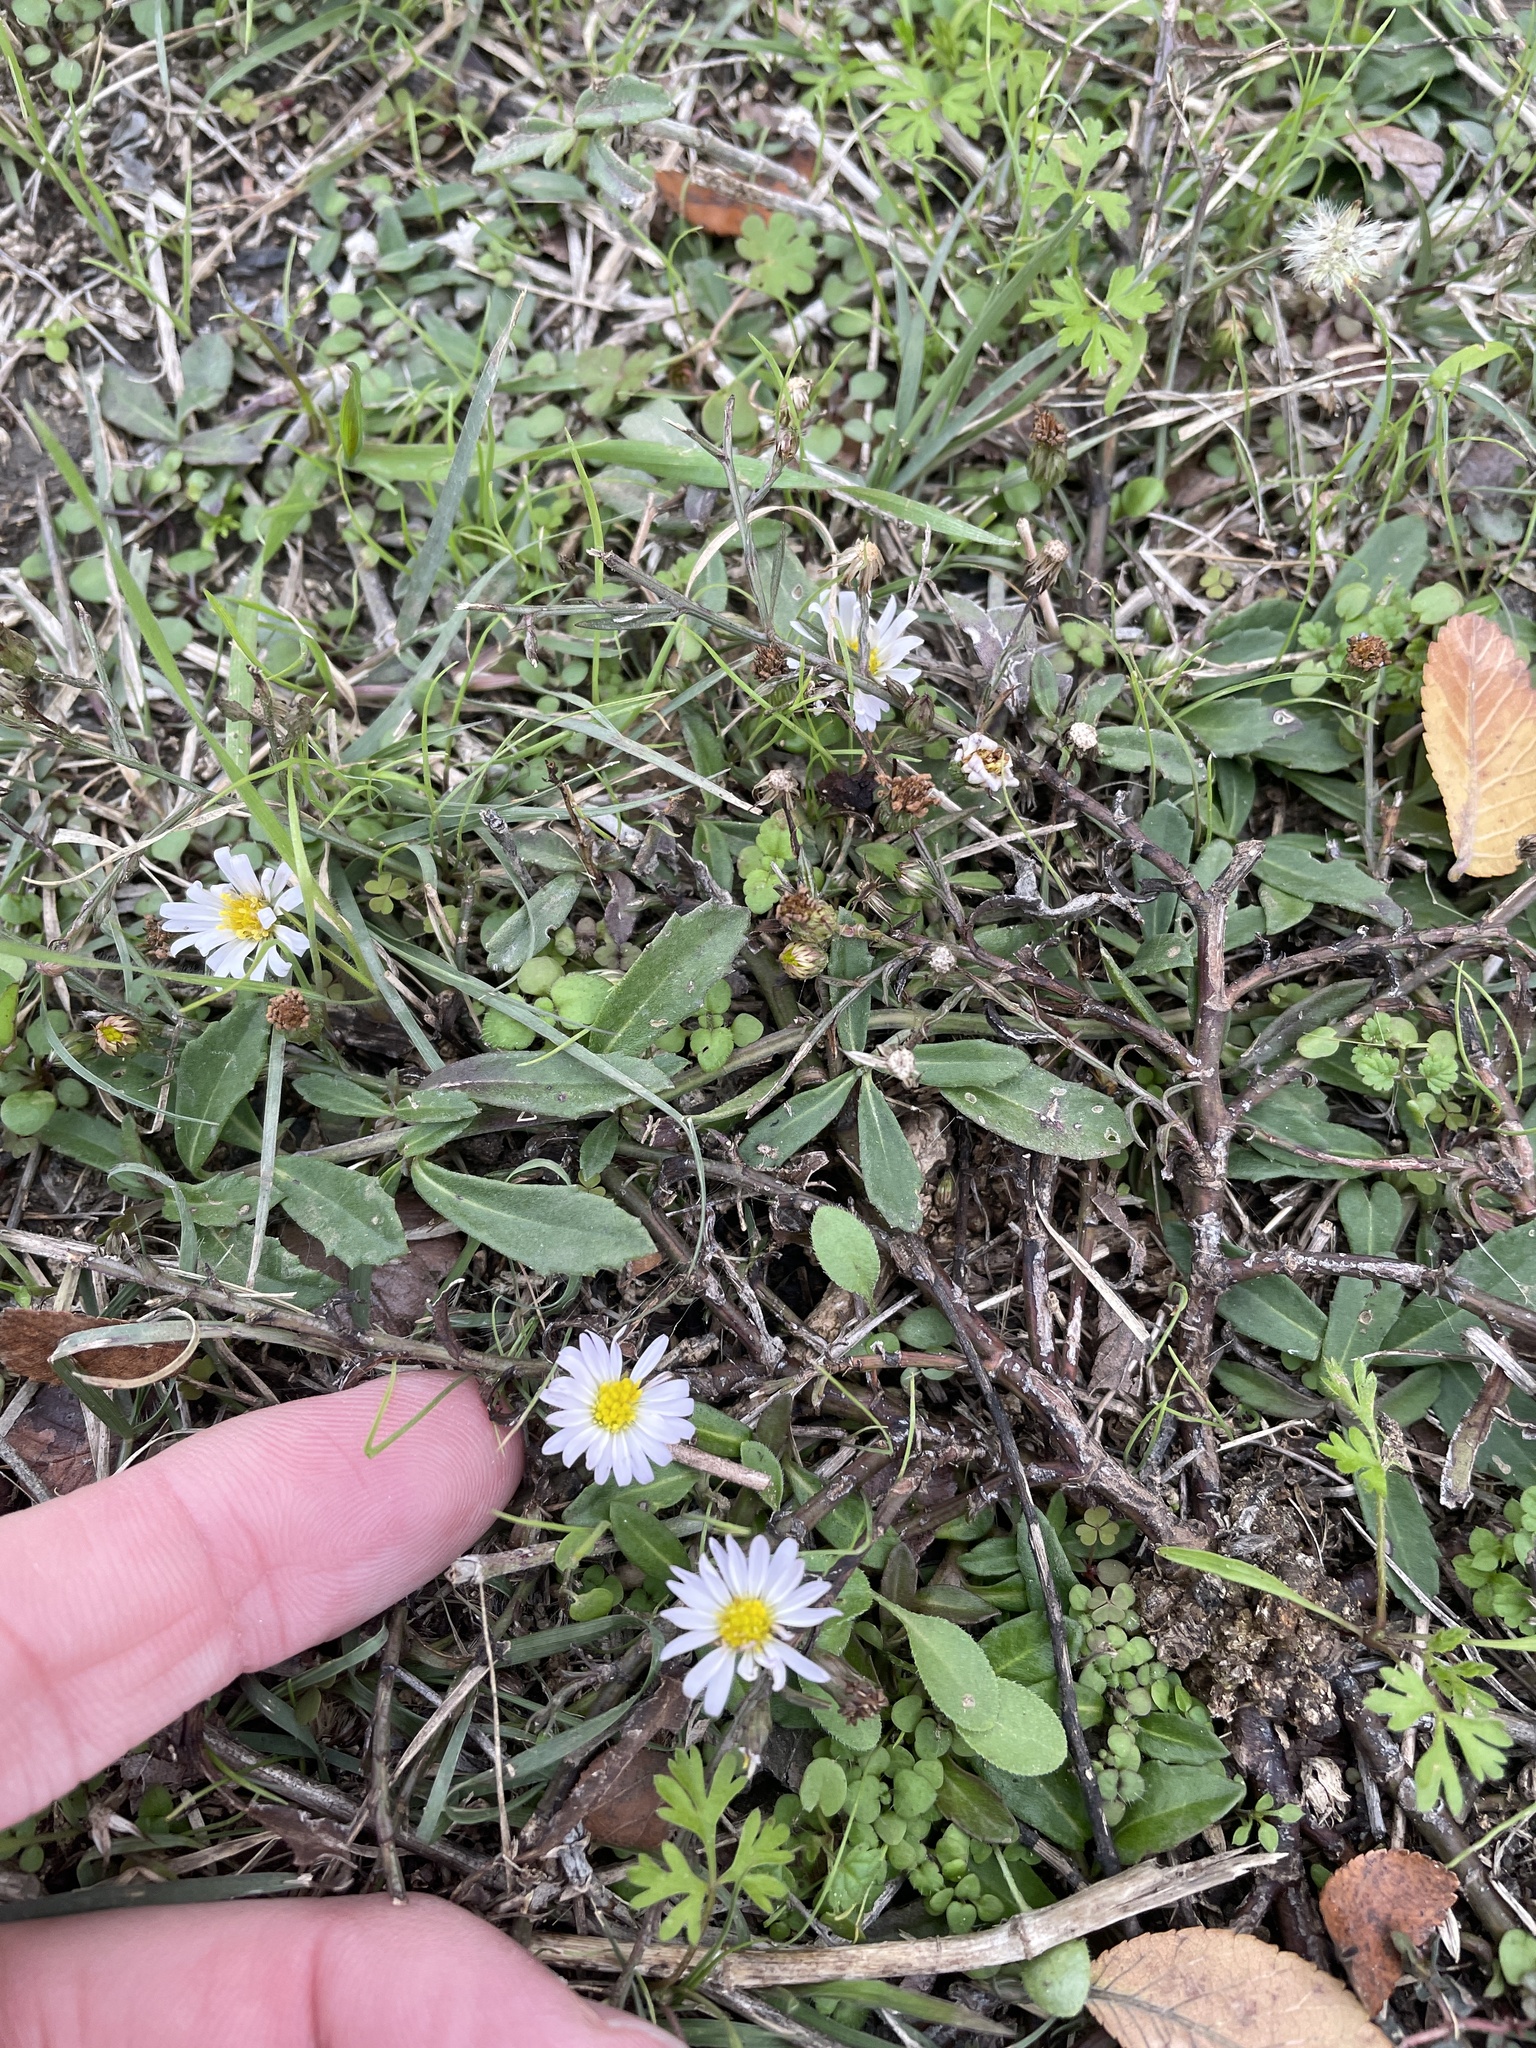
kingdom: Plantae
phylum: Tracheophyta
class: Magnoliopsida
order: Asterales
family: Asteraceae
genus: Symphyotrichum
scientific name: Symphyotrichum divaricatum
